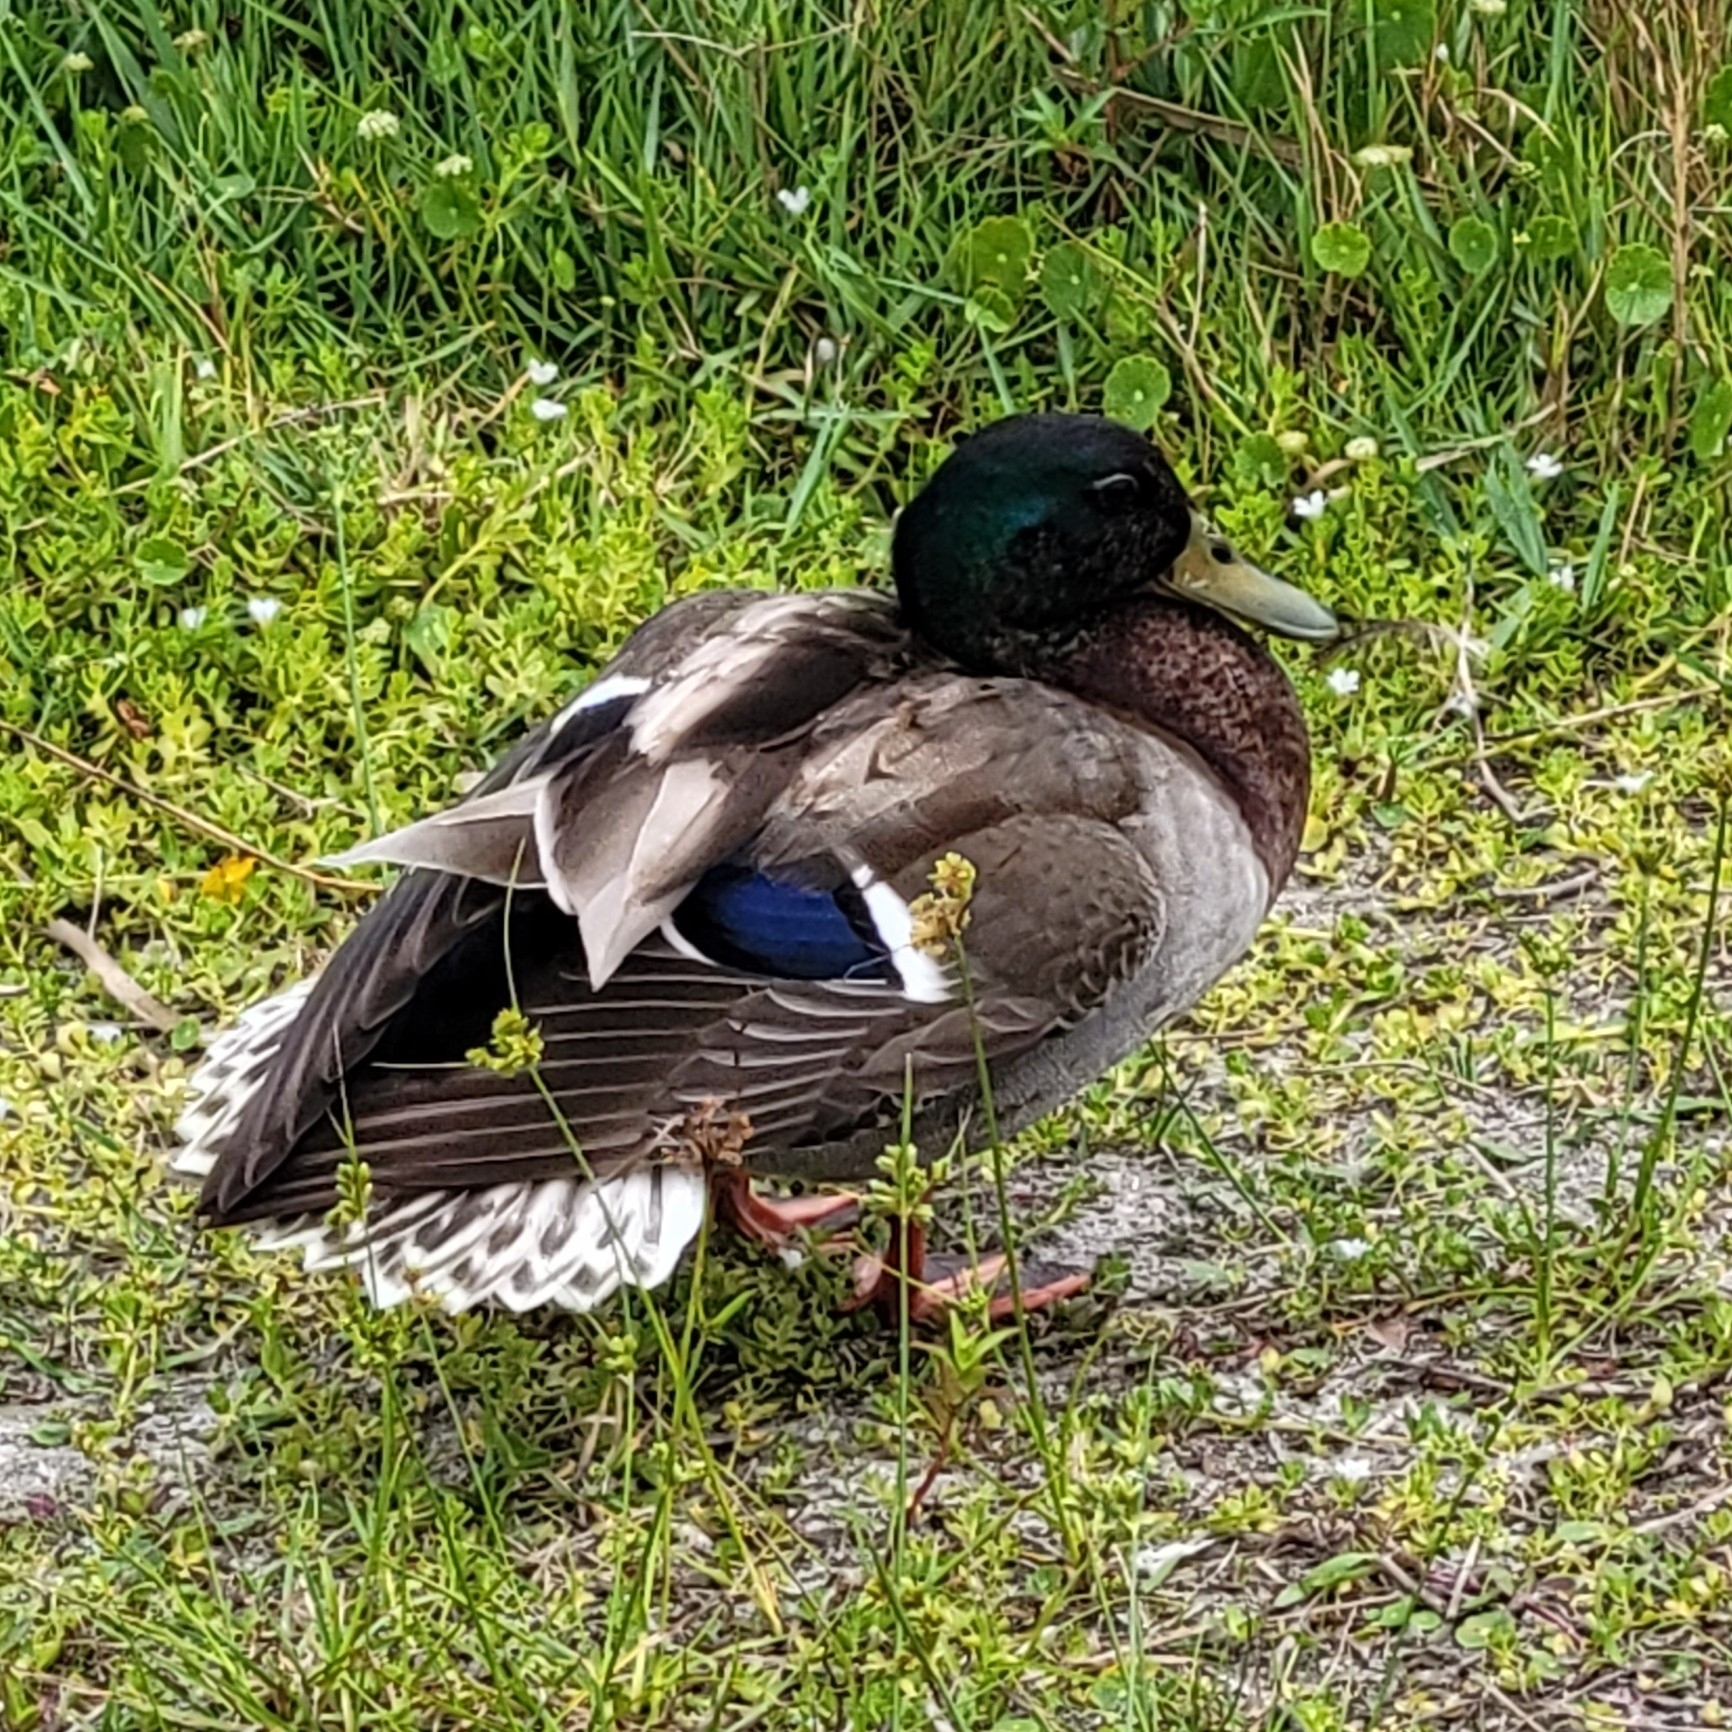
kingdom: Animalia
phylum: Chordata
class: Aves
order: Anseriformes
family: Anatidae
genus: Anas
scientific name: Anas platyrhynchos
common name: Mallard
